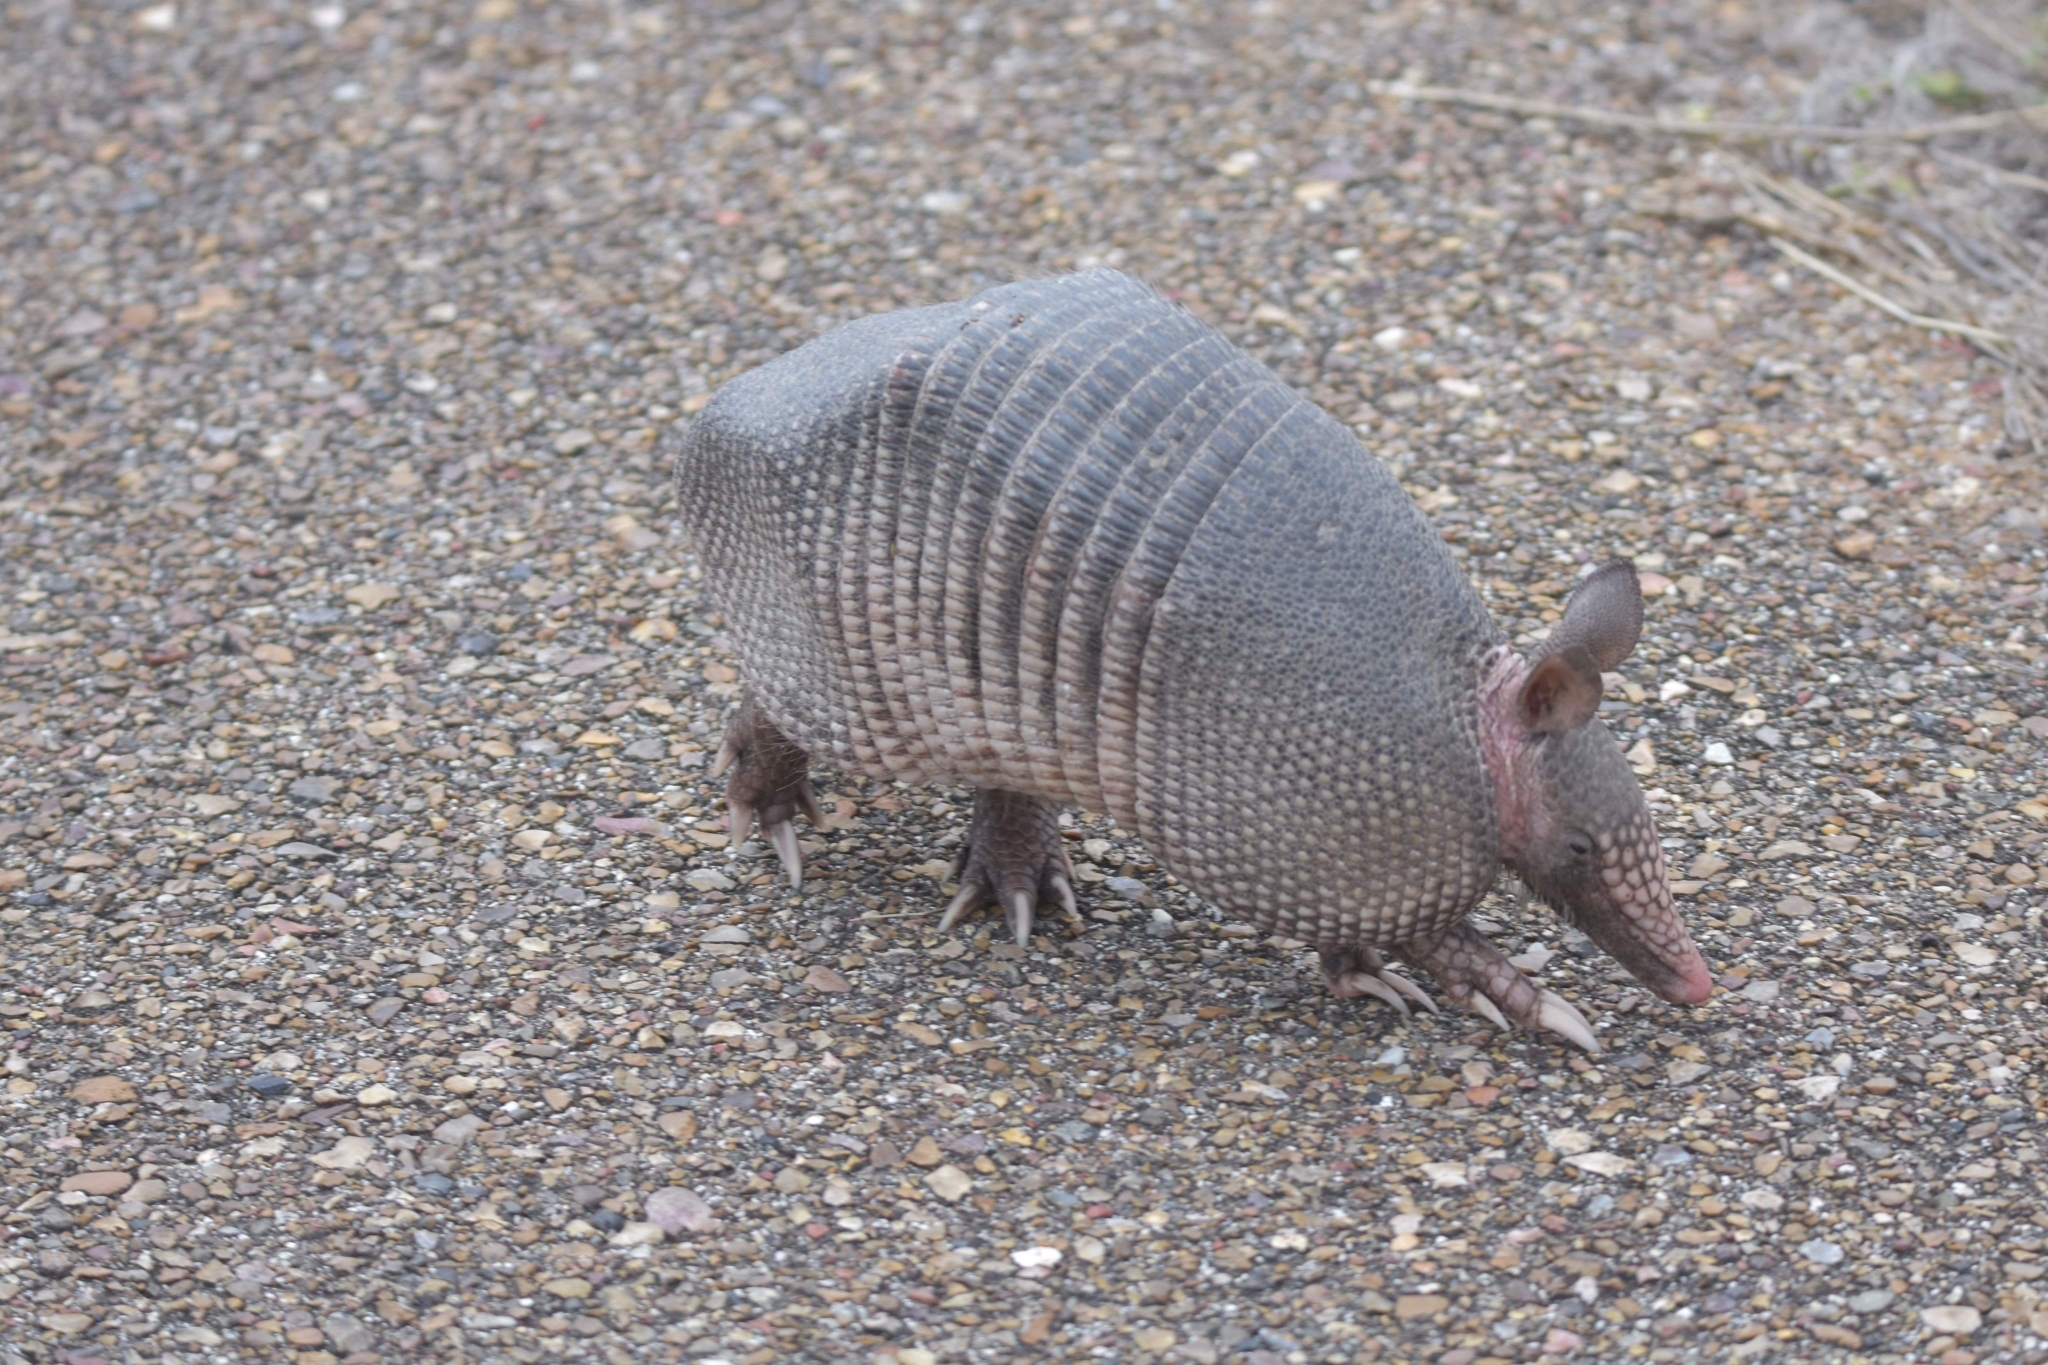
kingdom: Animalia
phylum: Chordata
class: Mammalia
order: Cingulata
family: Dasypodidae
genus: Dasypus
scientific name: Dasypus novemcinctus
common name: Nine-banded armadillo
